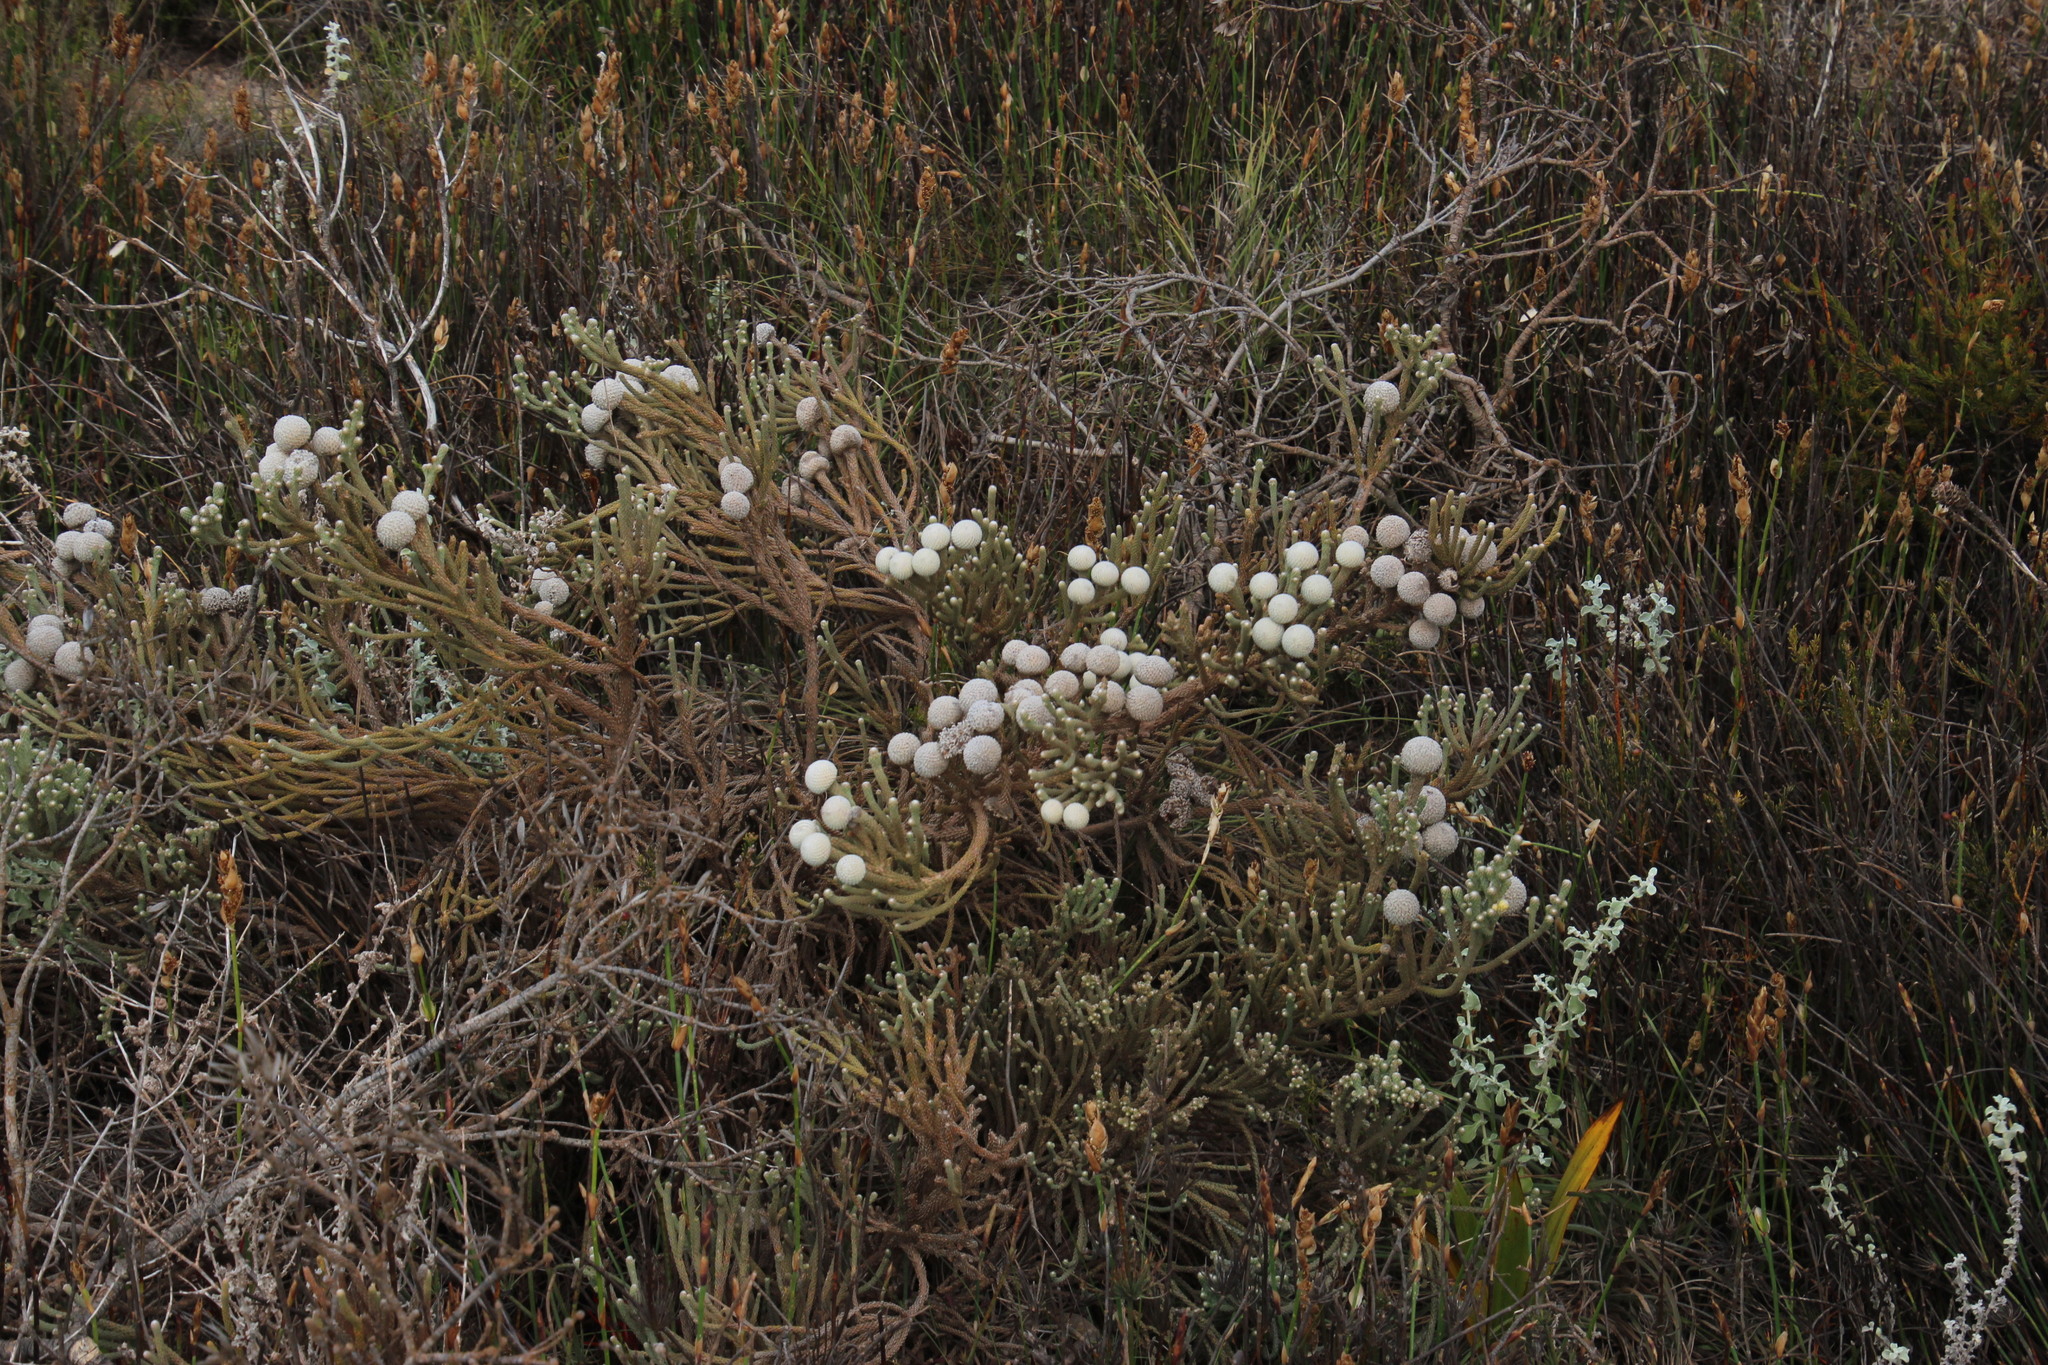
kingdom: Plantae
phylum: Tracheophyta
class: Magnoliopsida
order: Bruniales
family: Bruniaceae
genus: Brunia
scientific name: Brunia noduliflora
